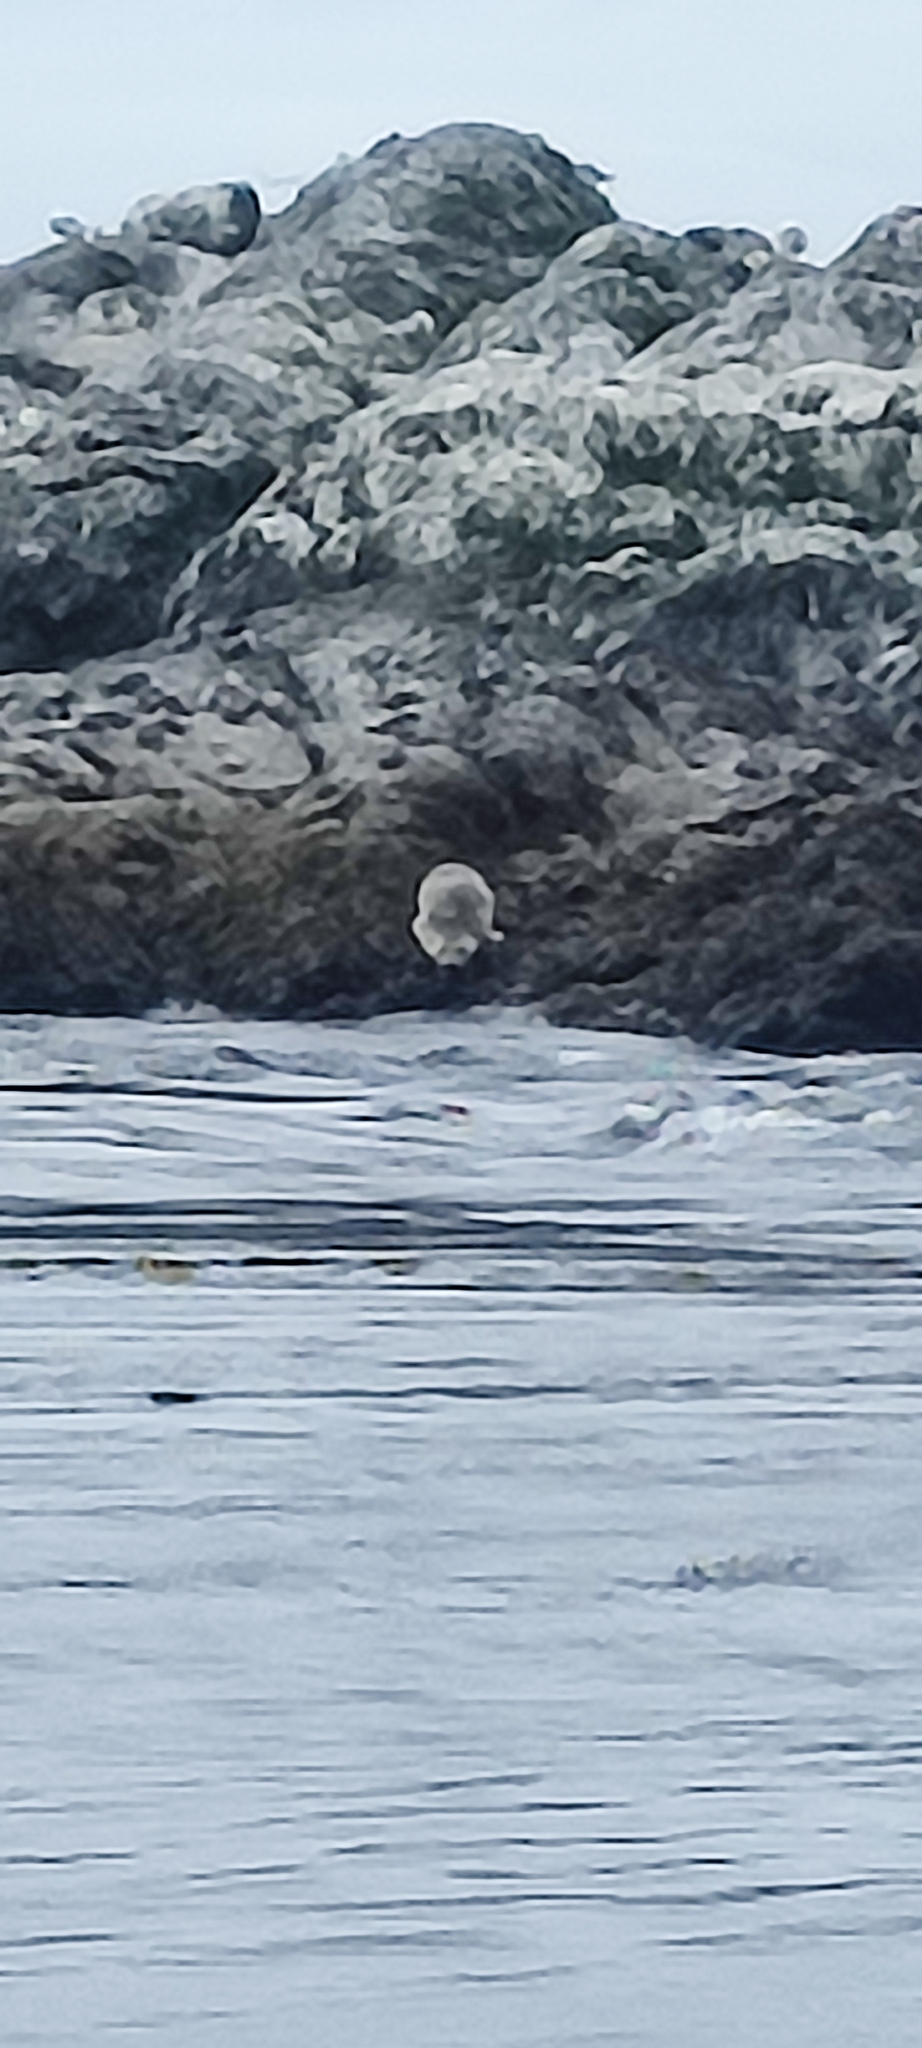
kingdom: Animalia
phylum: Chordata
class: Mammalia
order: Carnivora
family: Phocidae
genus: Phoca
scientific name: Phoca vitulina
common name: Harbor seal
